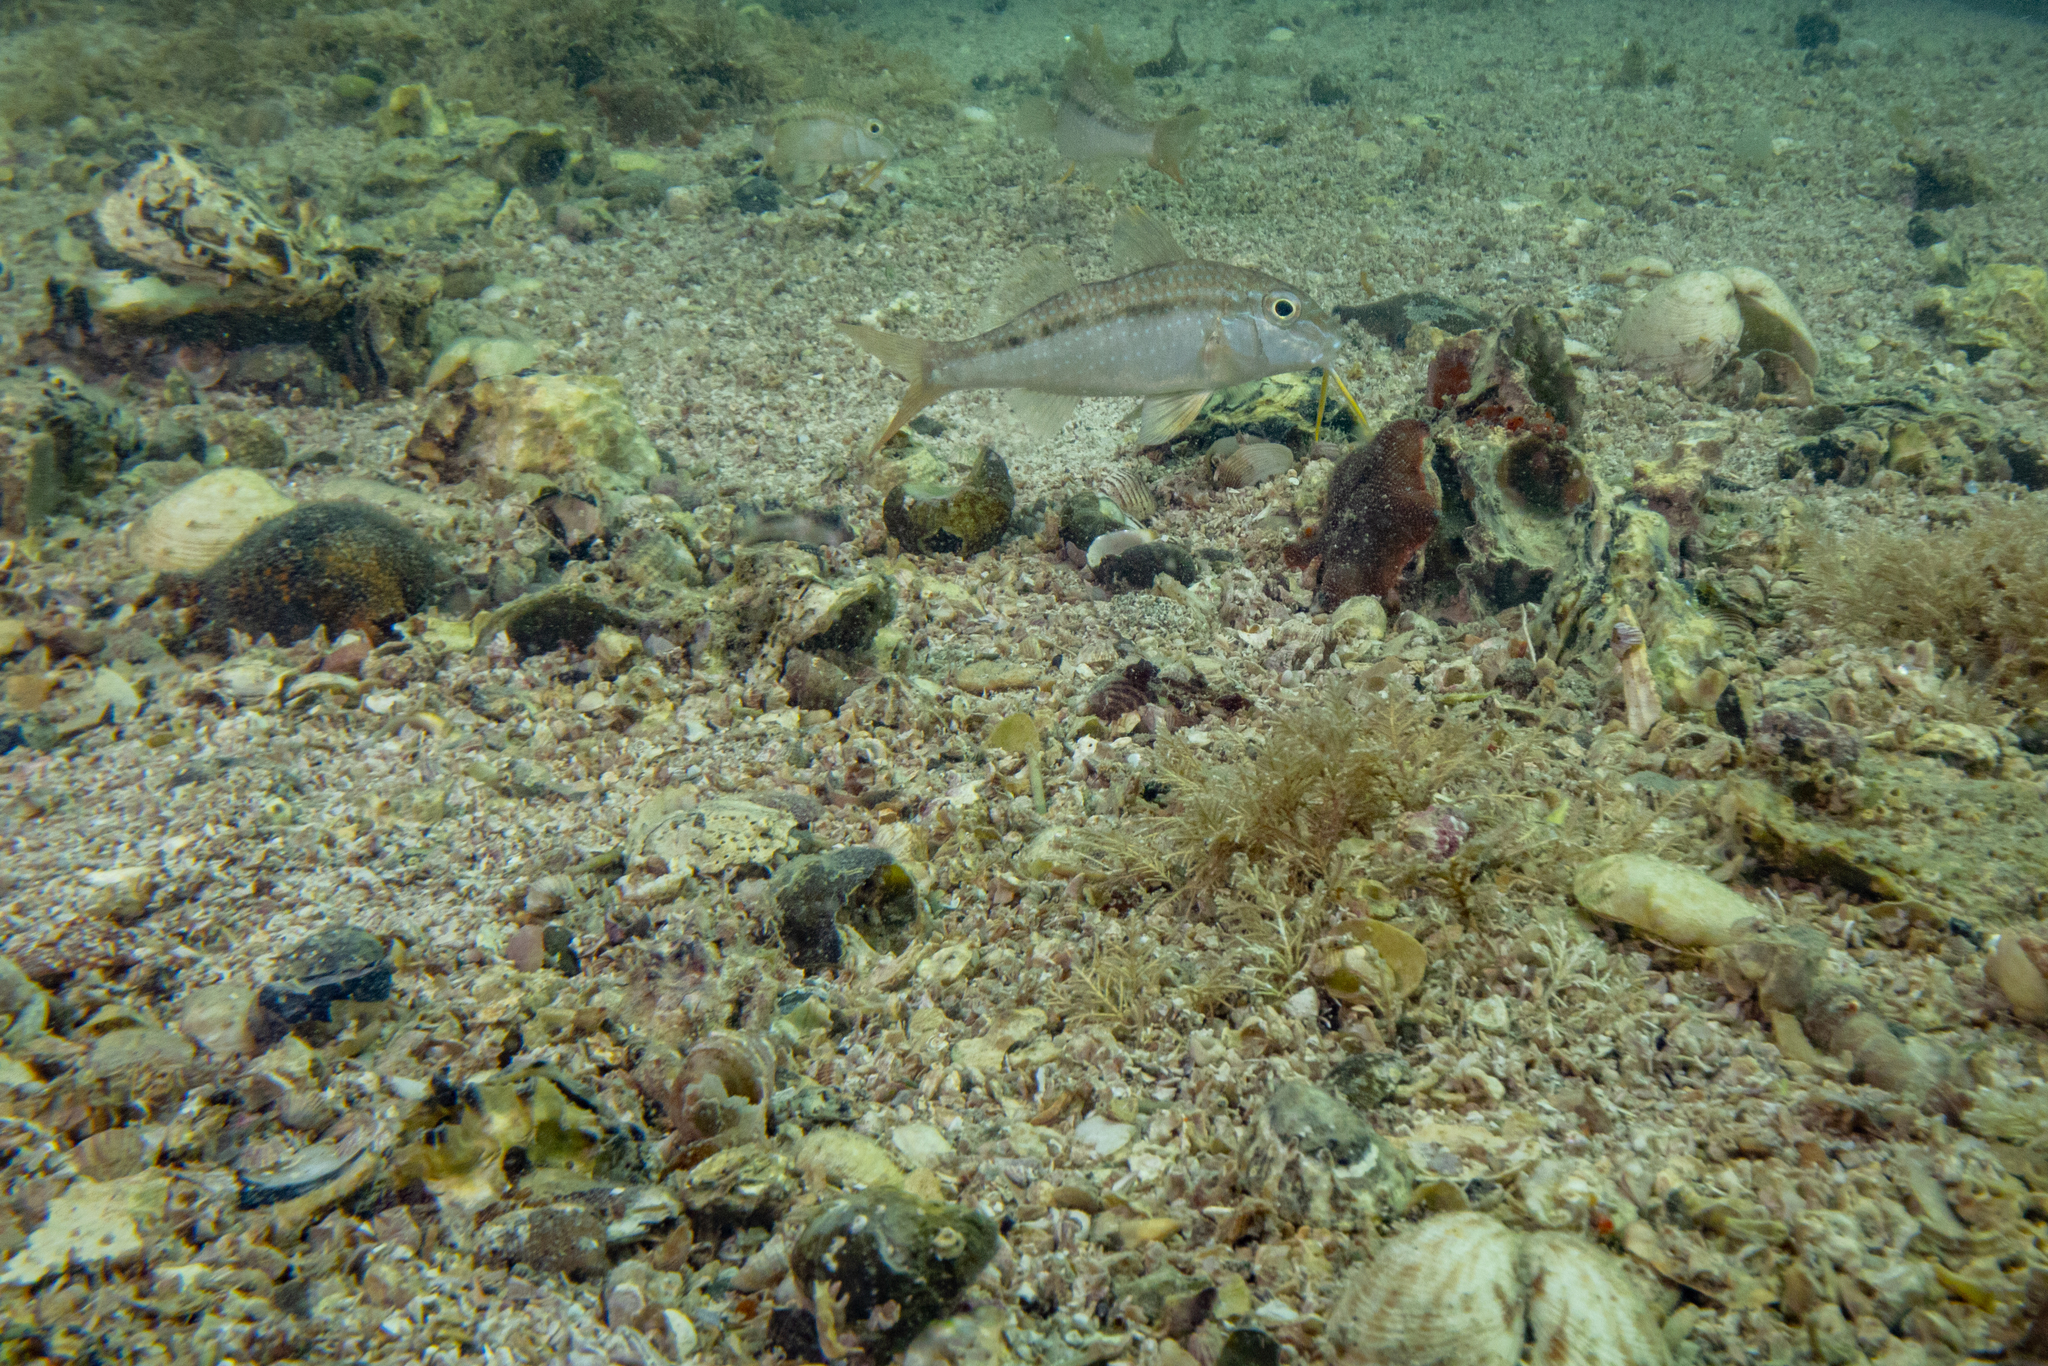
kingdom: Animalia
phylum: Chordata
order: Perciformes
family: Mullidae
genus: Upeneichthys
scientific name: Upeneichthys lineatus
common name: Red mullet
